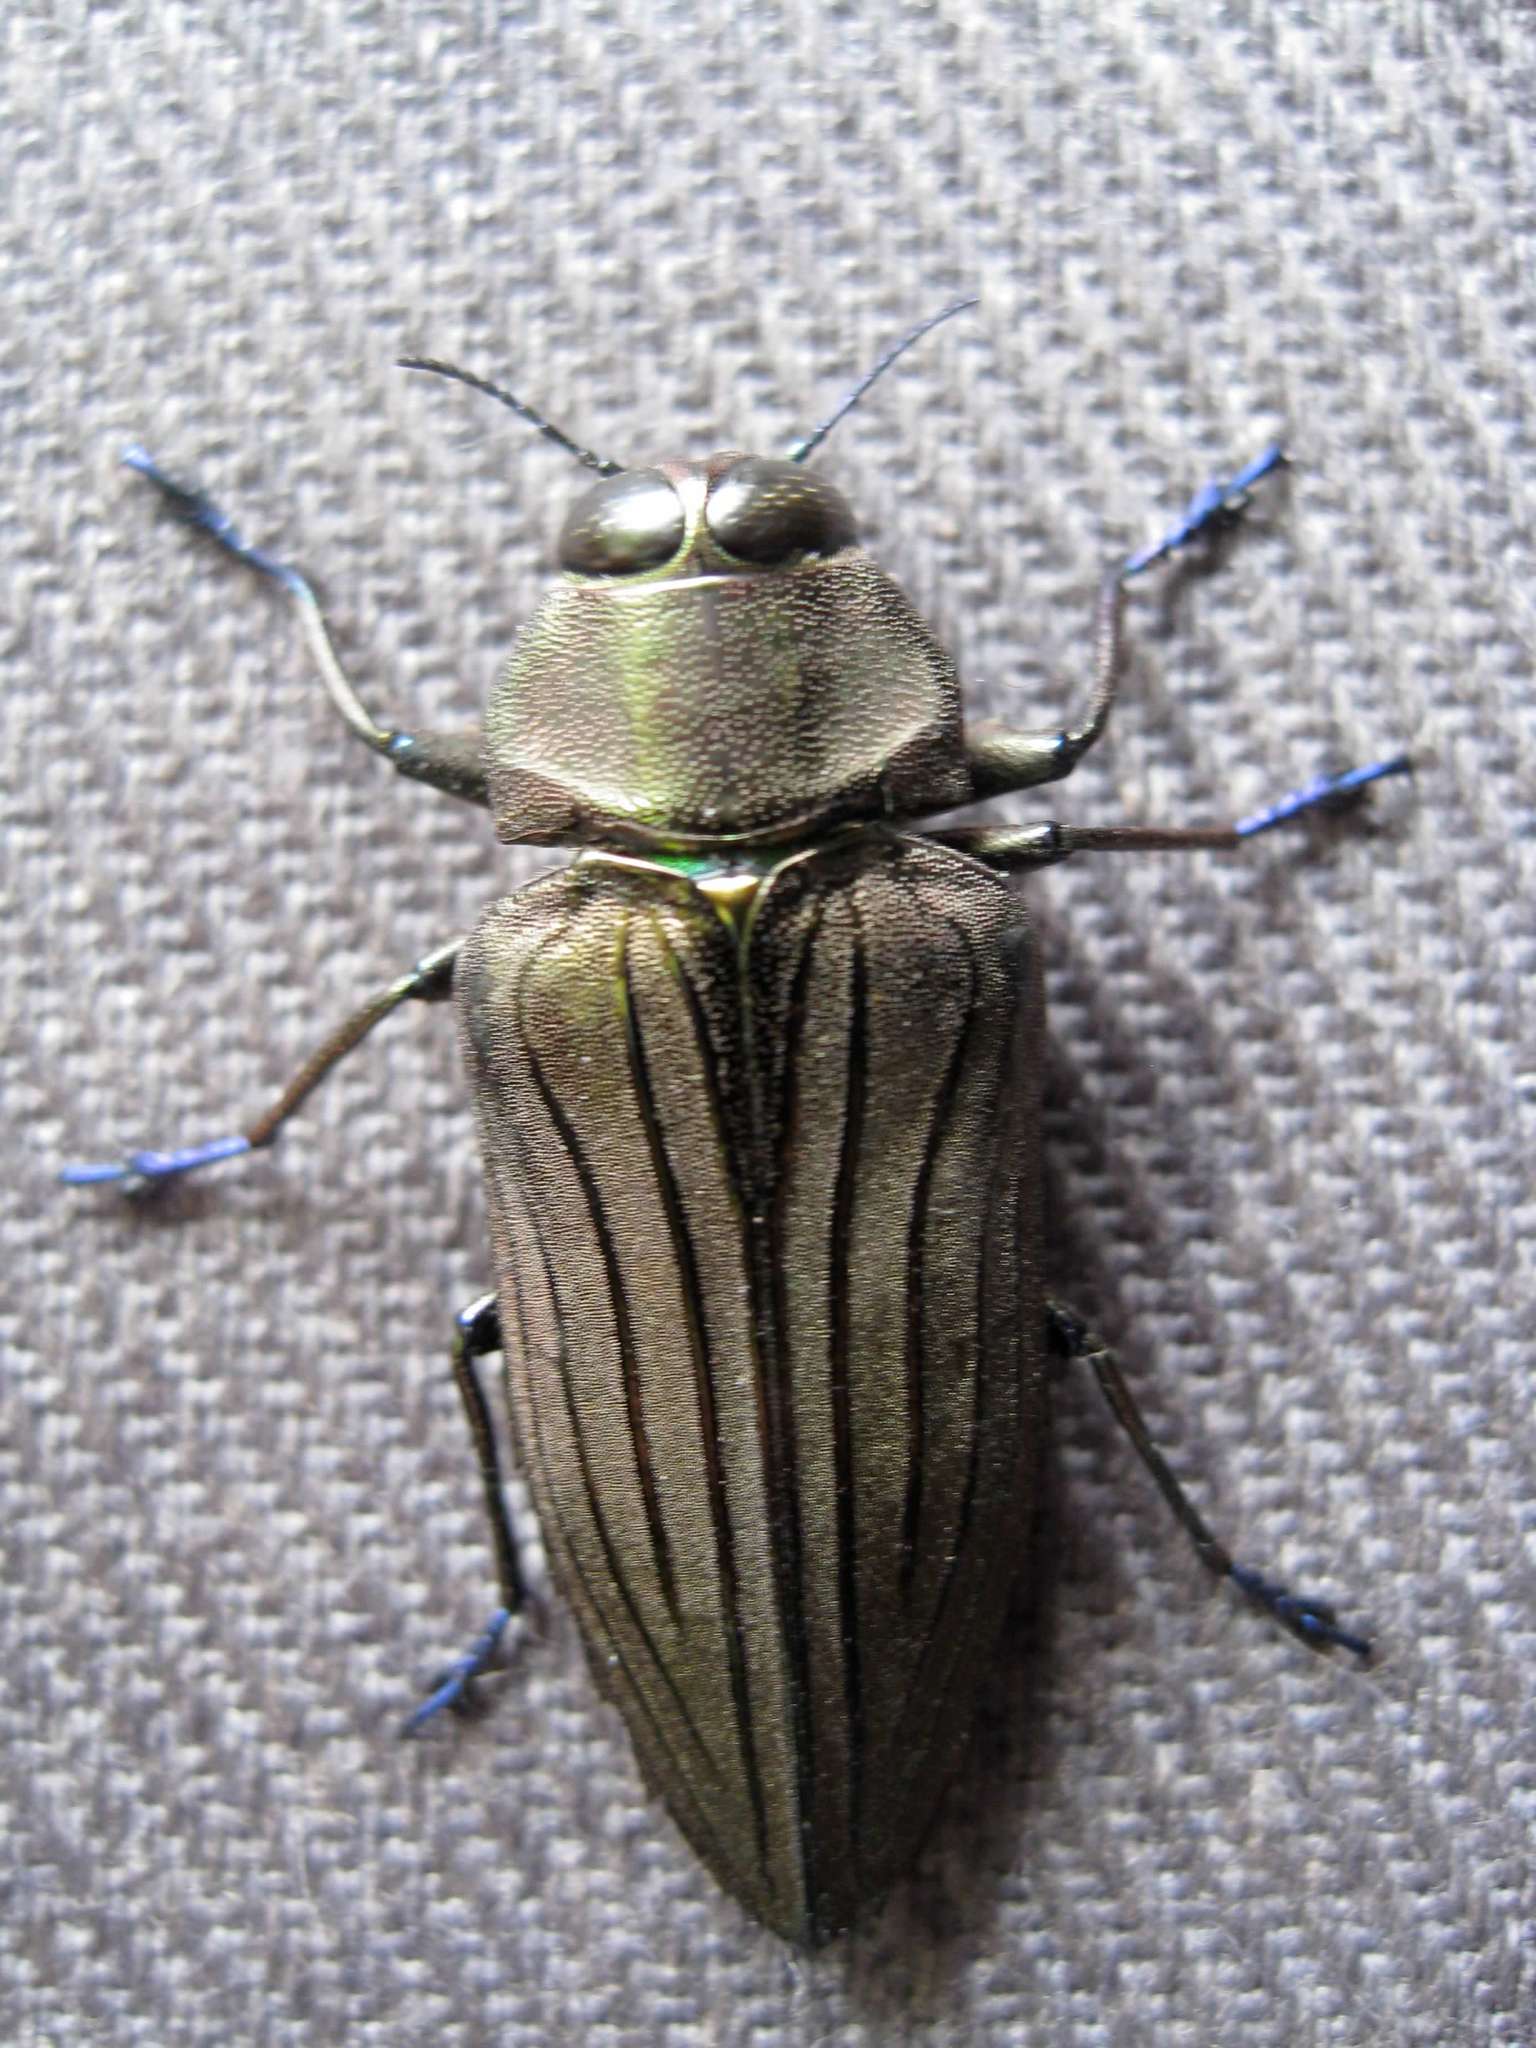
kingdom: Animalia
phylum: Arthropoda
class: Insecta
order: Coleoptera
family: Buprestidae
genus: Actenodes
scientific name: Actenodes chalybaeitarsis
